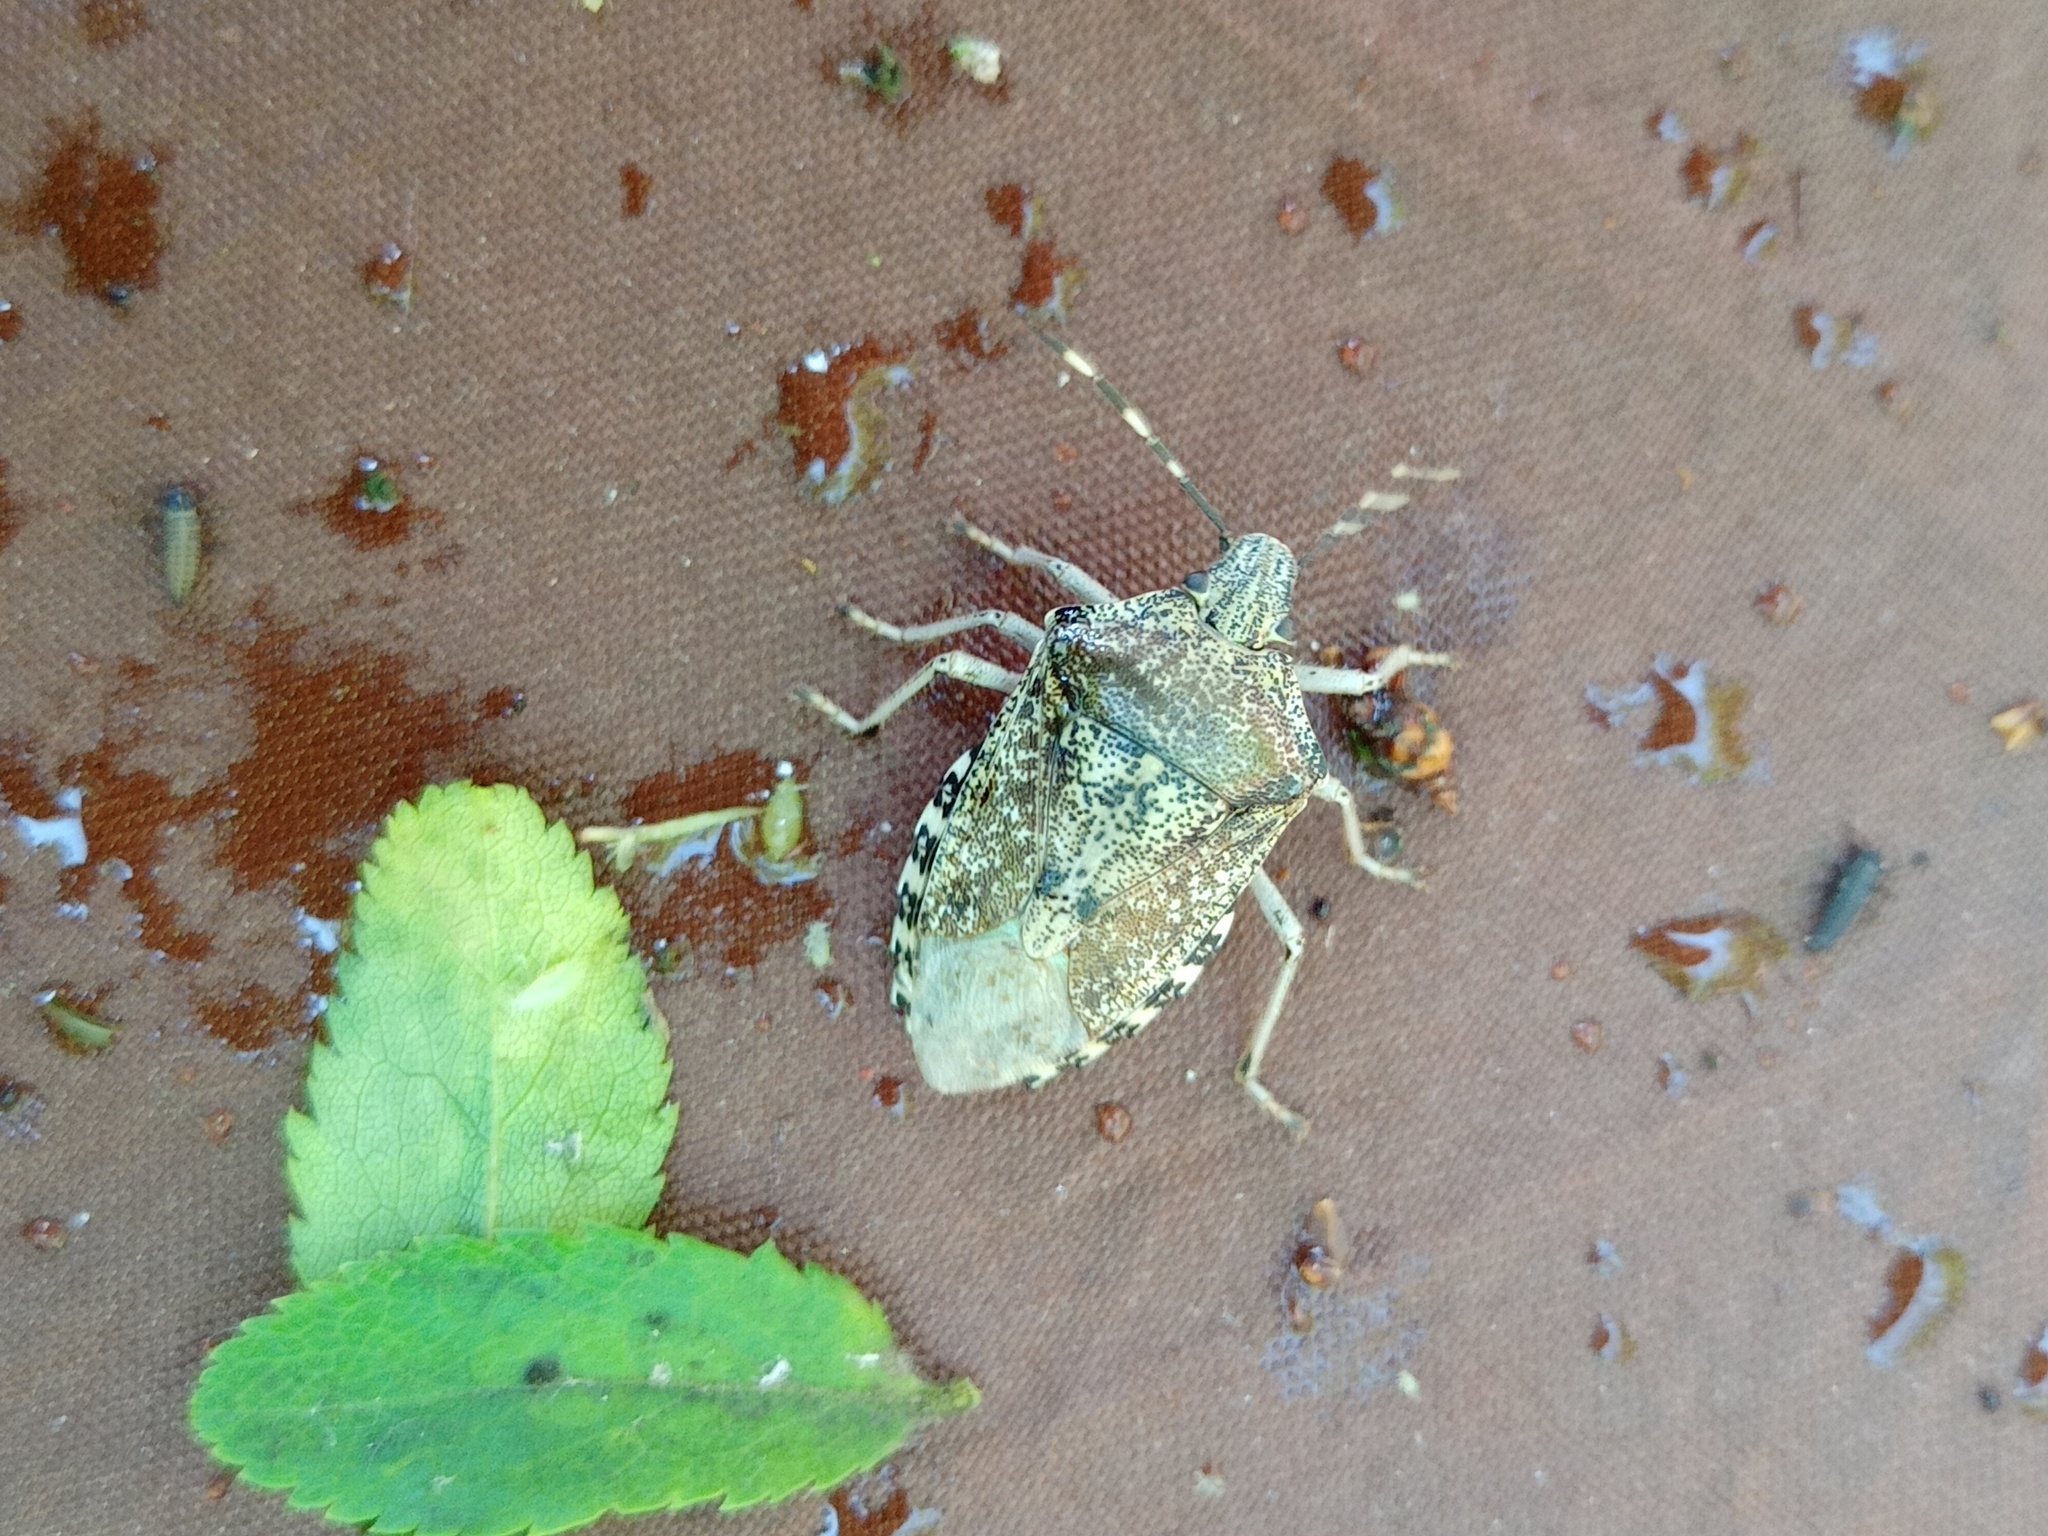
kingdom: Animalia
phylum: Arthropoda
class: Insecta
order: Hemiptera
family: Pentatomidae
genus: Rhaphigaster
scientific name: Rhaphigaster nebulosa
